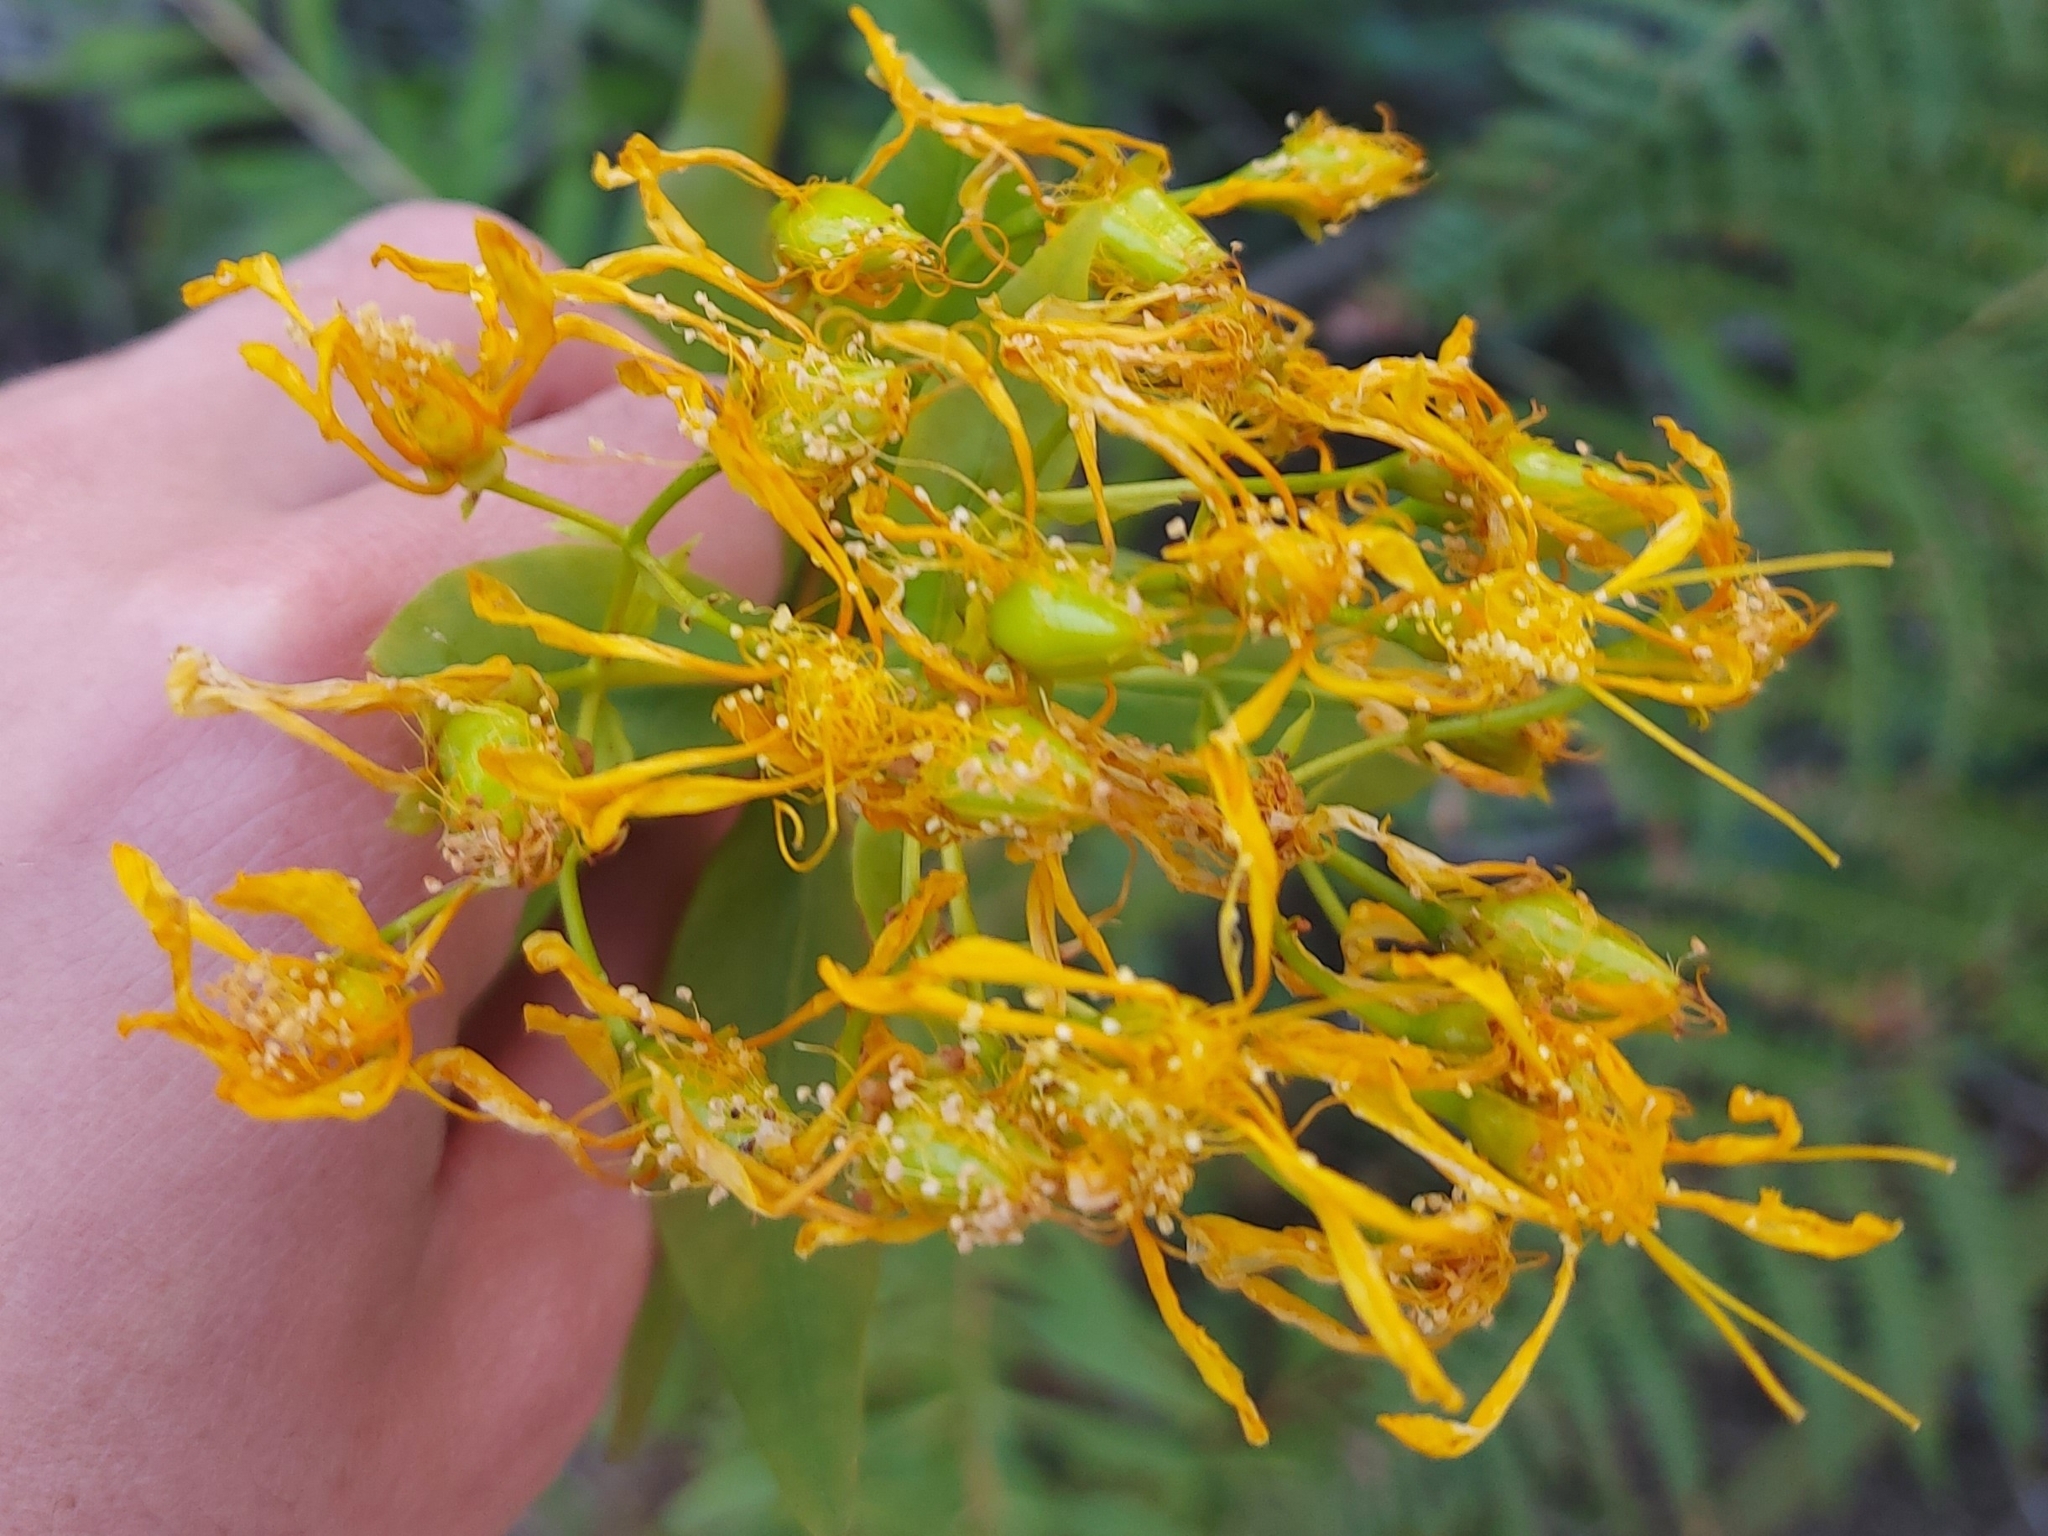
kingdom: Plantae
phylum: Tracheophyta
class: Magnoliopsida
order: Malpighiales
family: Hypericaceae
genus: Hypericum
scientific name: Hypericum canariense
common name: Canary island st. johnswort
